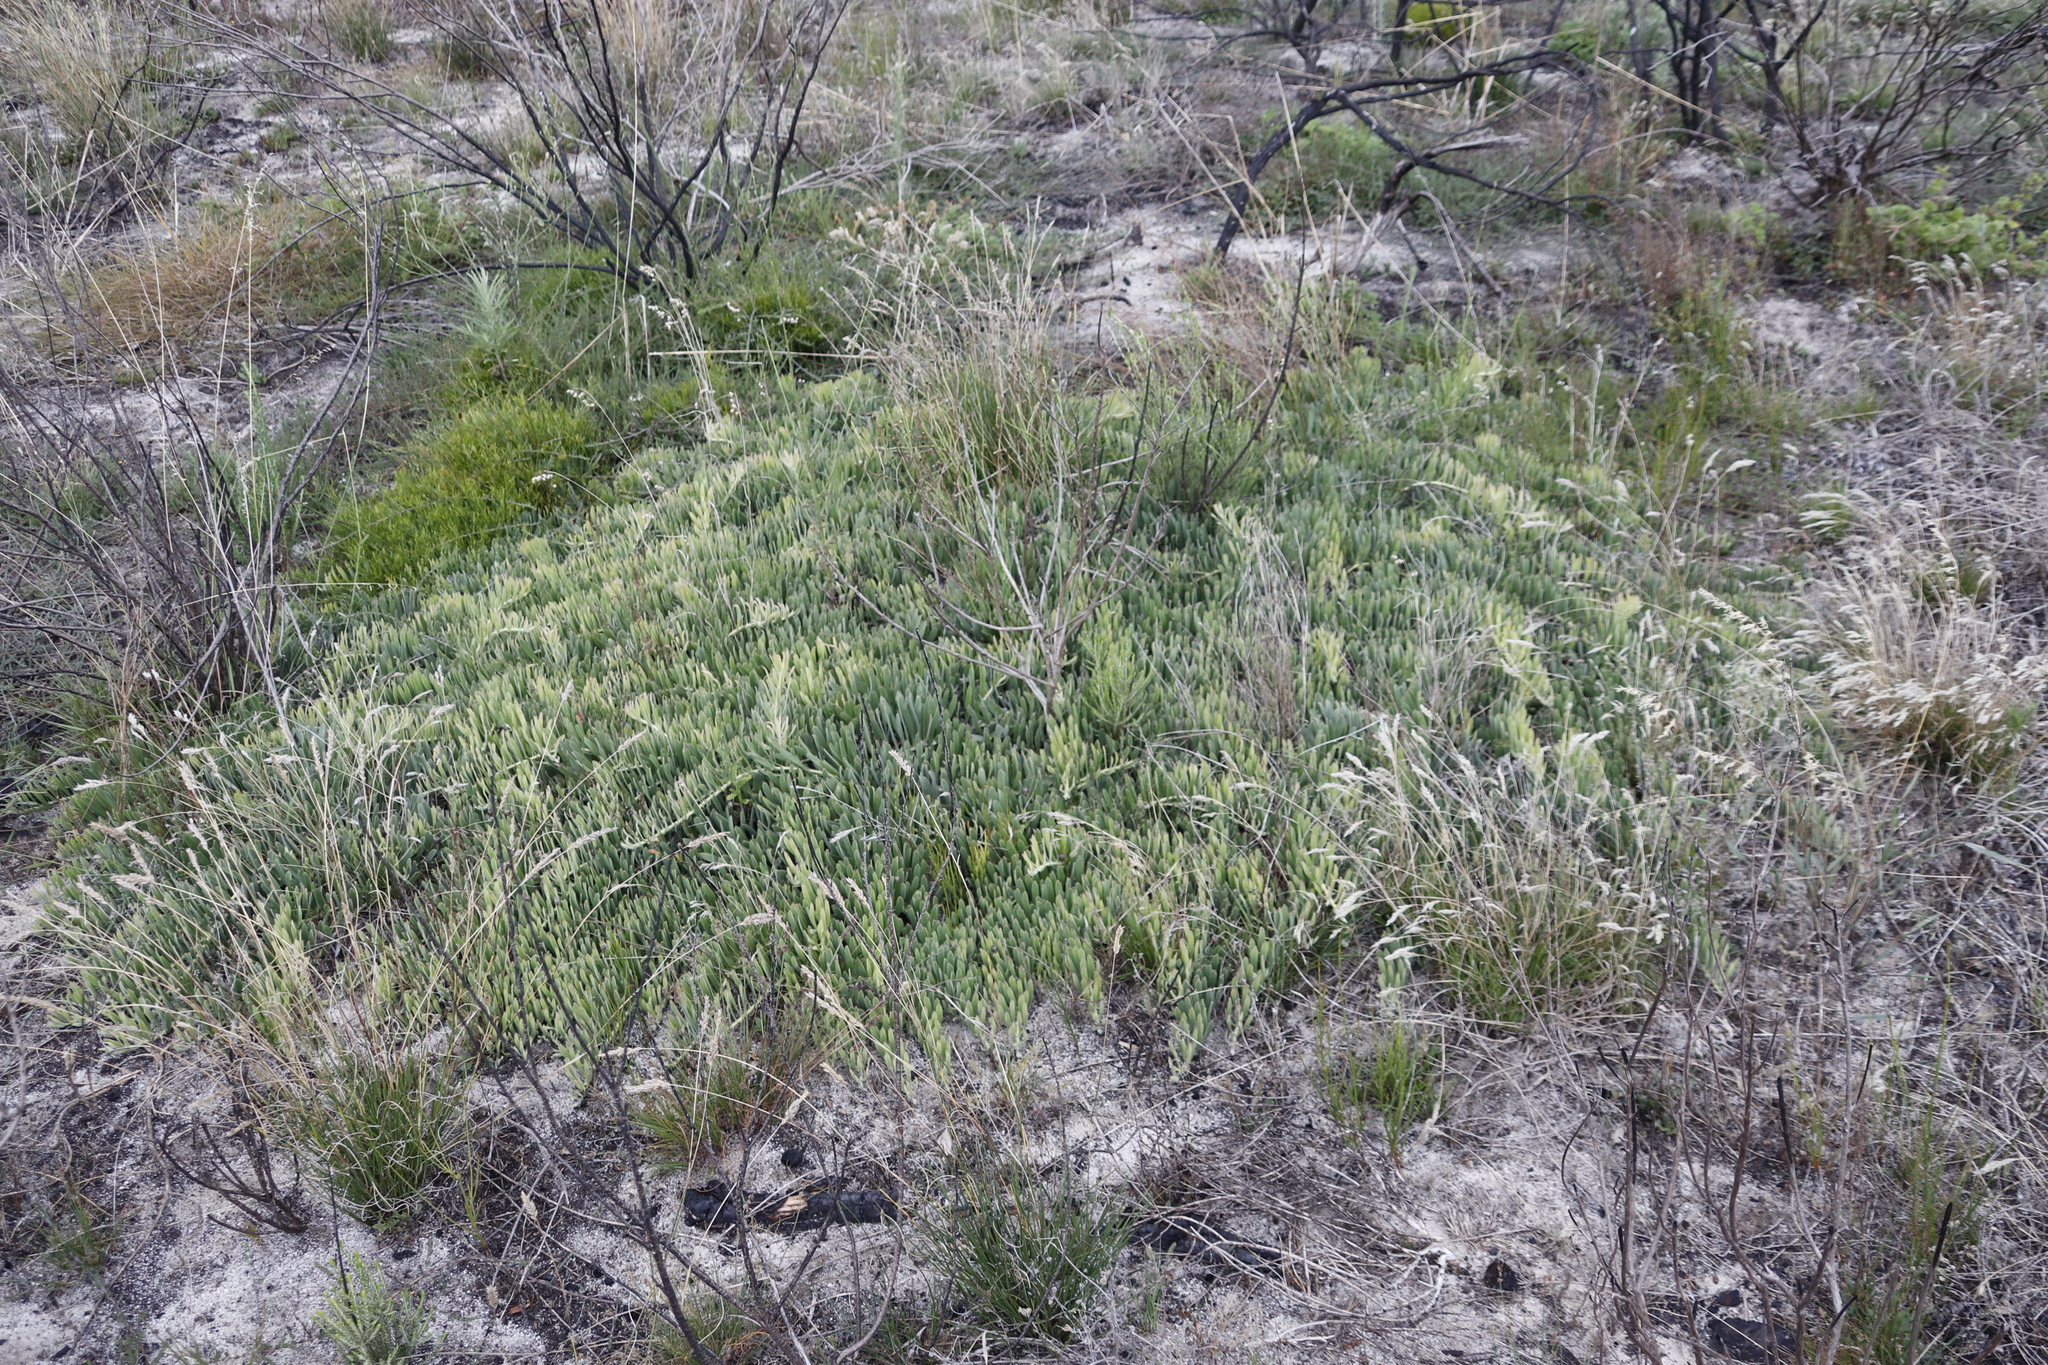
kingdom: Plantae
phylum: Tracheophyta
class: Magnoliopsida
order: Proteales
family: Proteaceae
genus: Leucospermum
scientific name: Leucospermum hypophyllocarpodendron
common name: Snakestem pincushion
